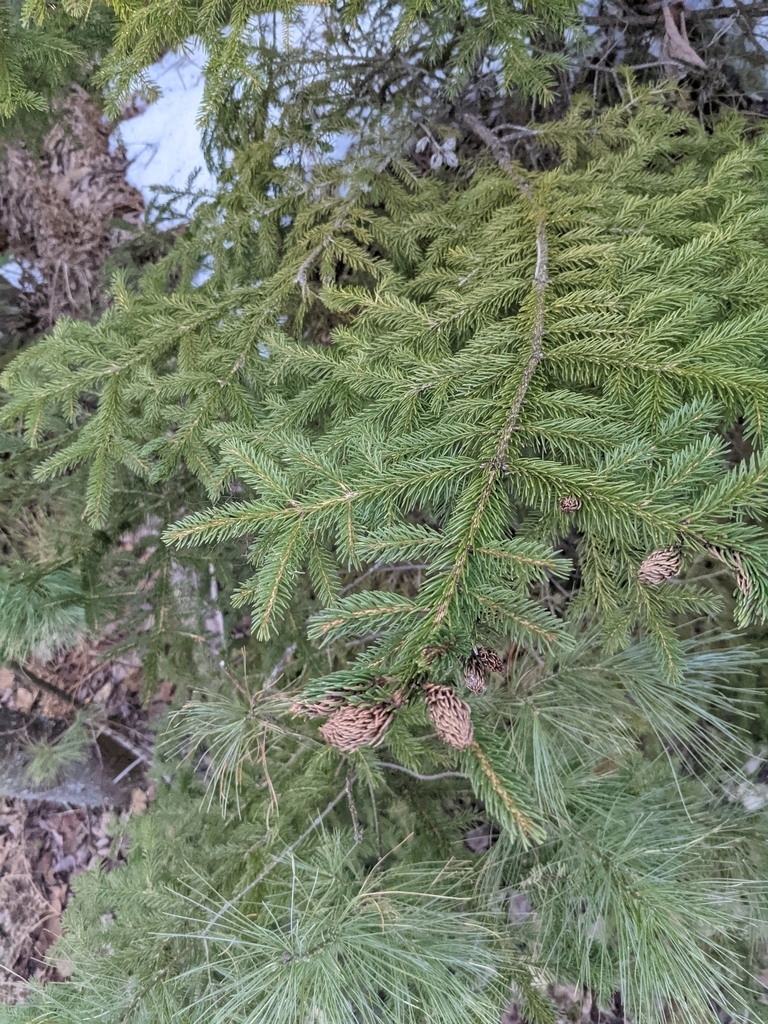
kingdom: Animalia
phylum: Arthropoda
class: Insecta
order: Hemiptera
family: Adelgidae
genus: Adelges
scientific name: Adelges abietis
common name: Eastern spruce gall adelgid
